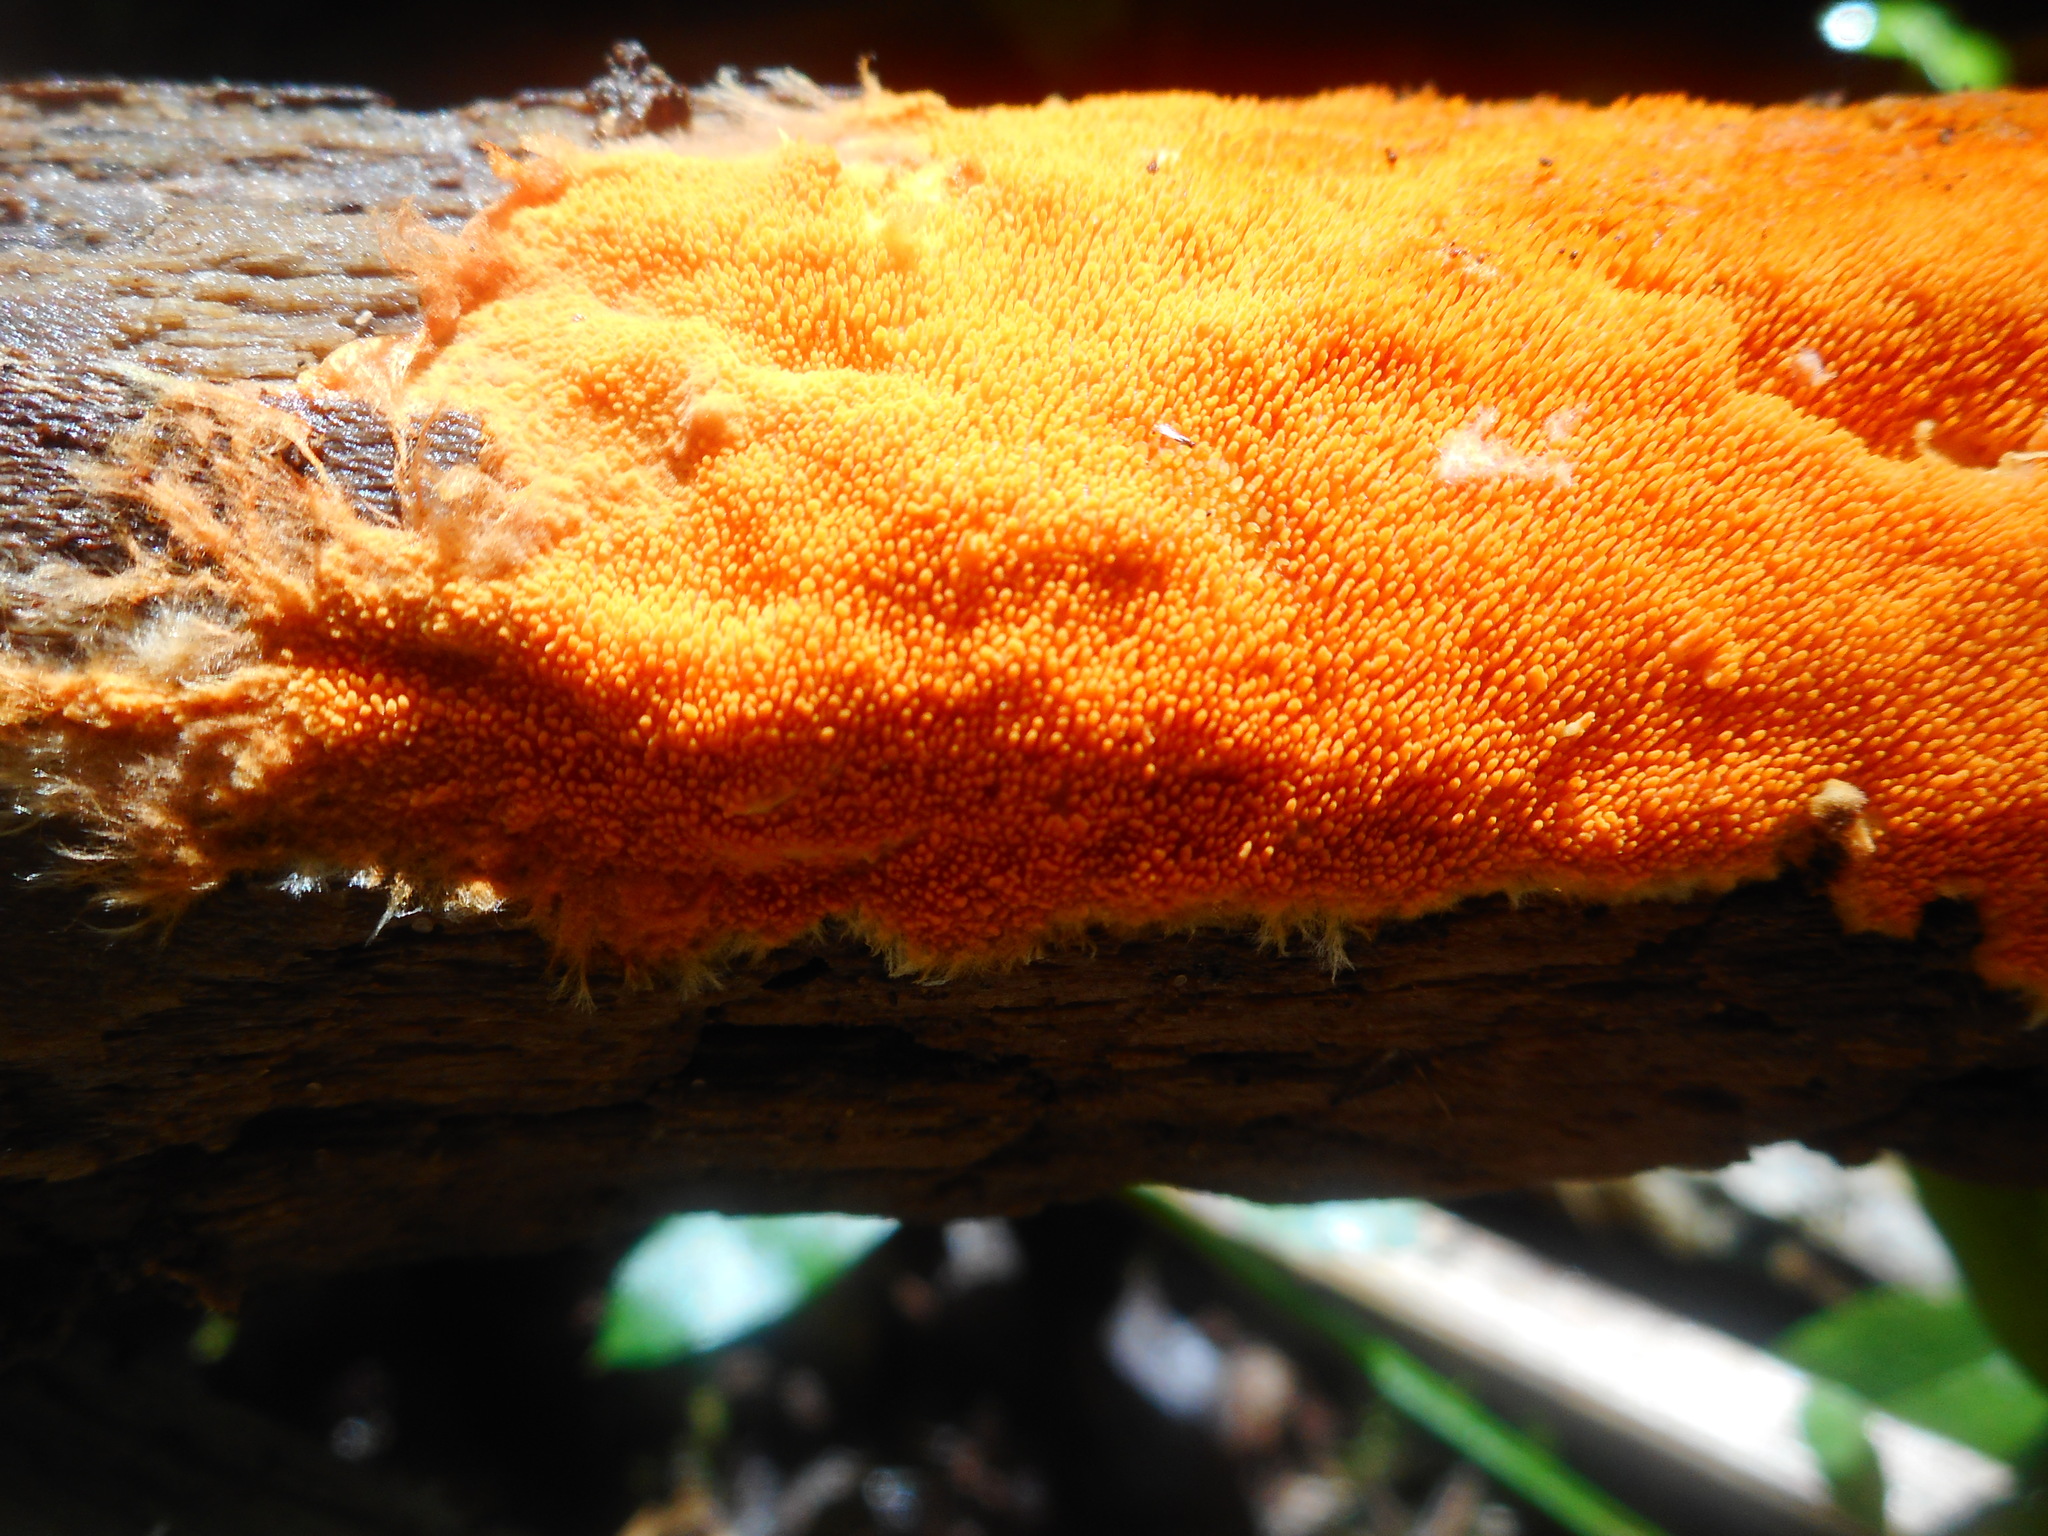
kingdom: Fungi
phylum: Basidiomycota
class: Agaricomycetes
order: Polyporales
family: Meruliaceae
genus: Hydnophlebia
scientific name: Hydnophlebia chrysorhiza
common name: Spreading yellow tooth
